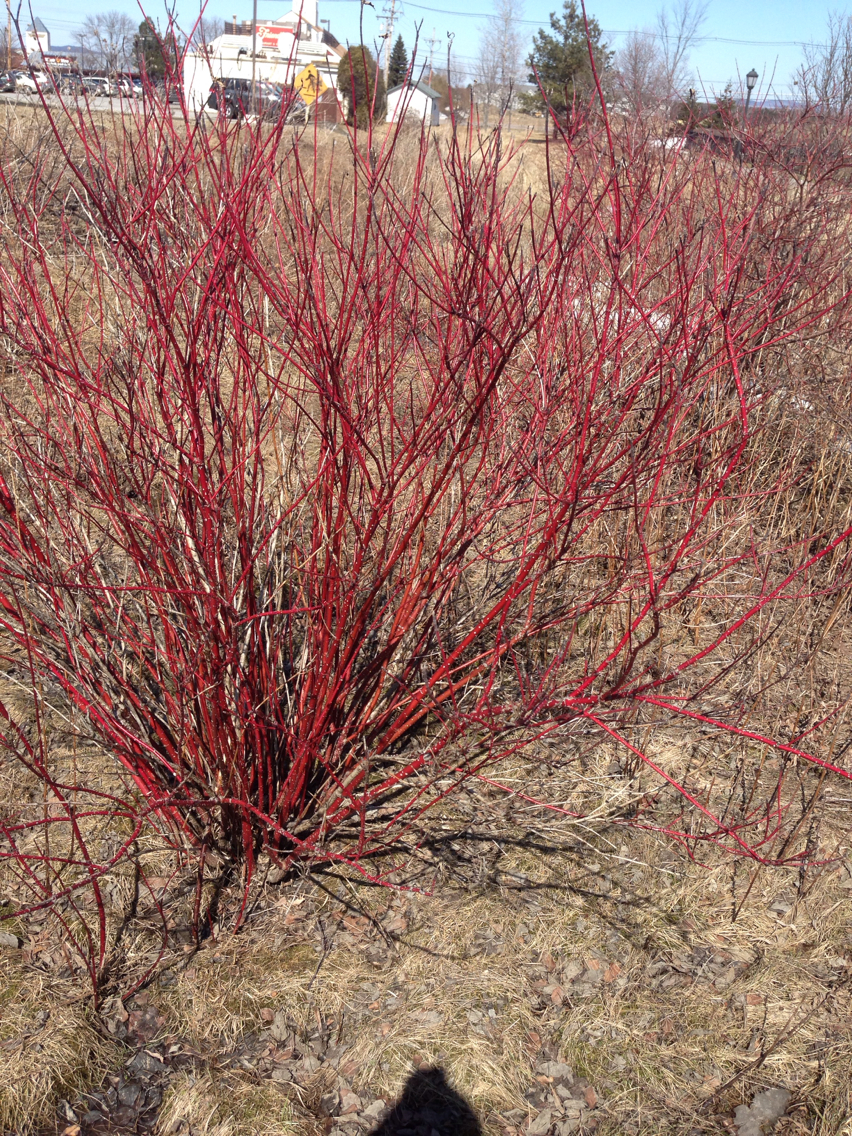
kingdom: Plantae
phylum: Tracheophyta
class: Magnoliopsida
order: Cornales
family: Cornaceae
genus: Cornus
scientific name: Cornus sericea
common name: Red-osier dogwood
